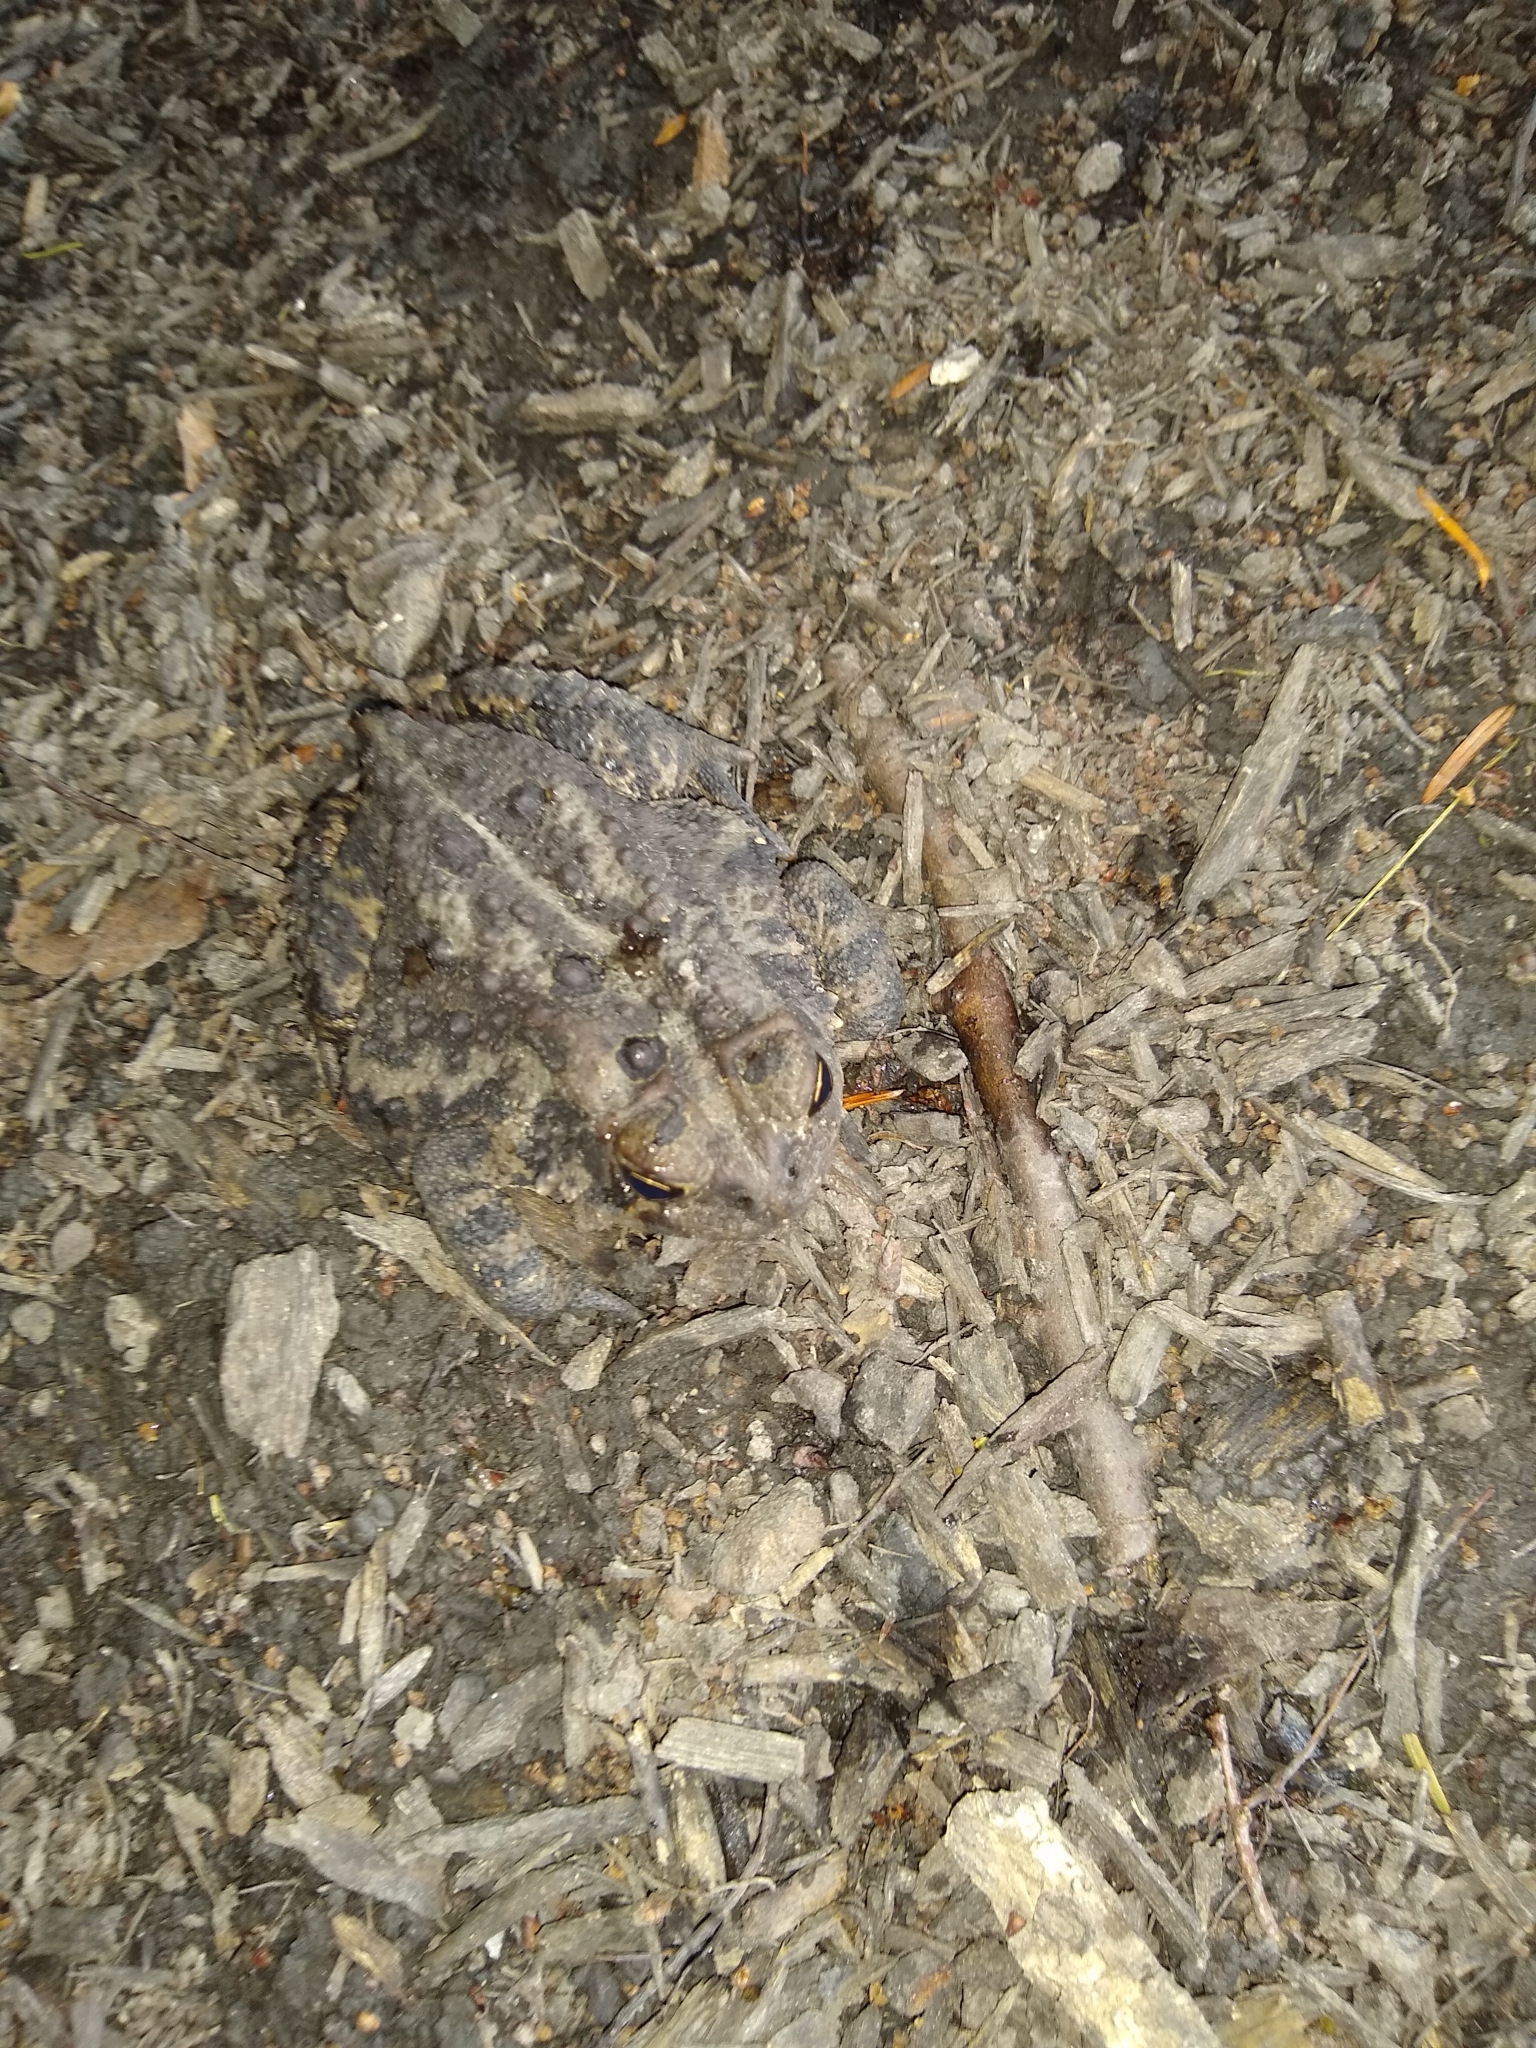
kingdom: Animalia
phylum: Chordata
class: Amphibia
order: Anura
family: Bufonidae
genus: Anaxyrus
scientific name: Anaxyrus americanus
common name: American toad
